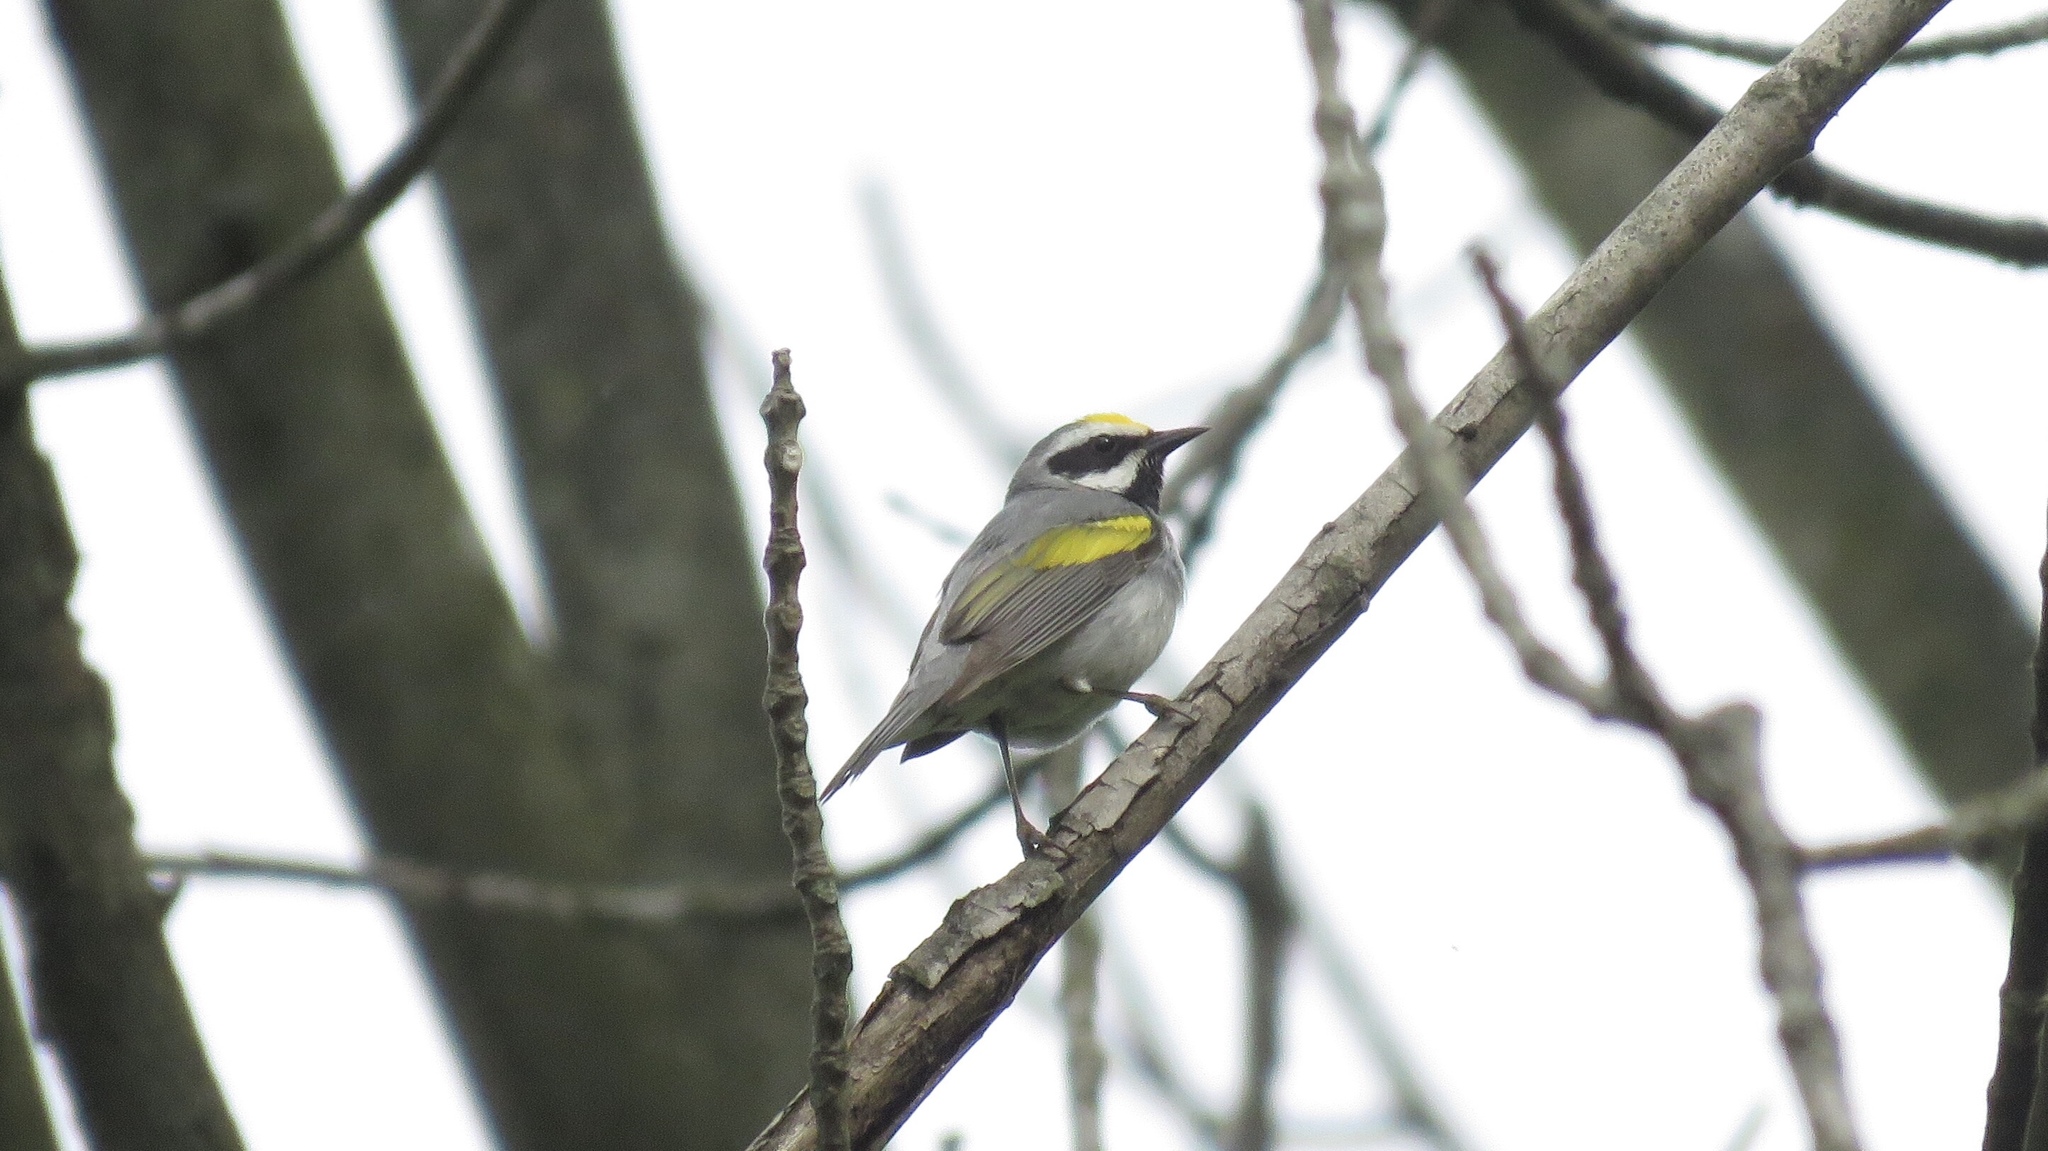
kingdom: Animalia
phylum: Chordata
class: Aves
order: Passeriformes
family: Parulidae
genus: Vermivora
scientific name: Vermivora chrysoptera
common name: Golden-winged warbler
